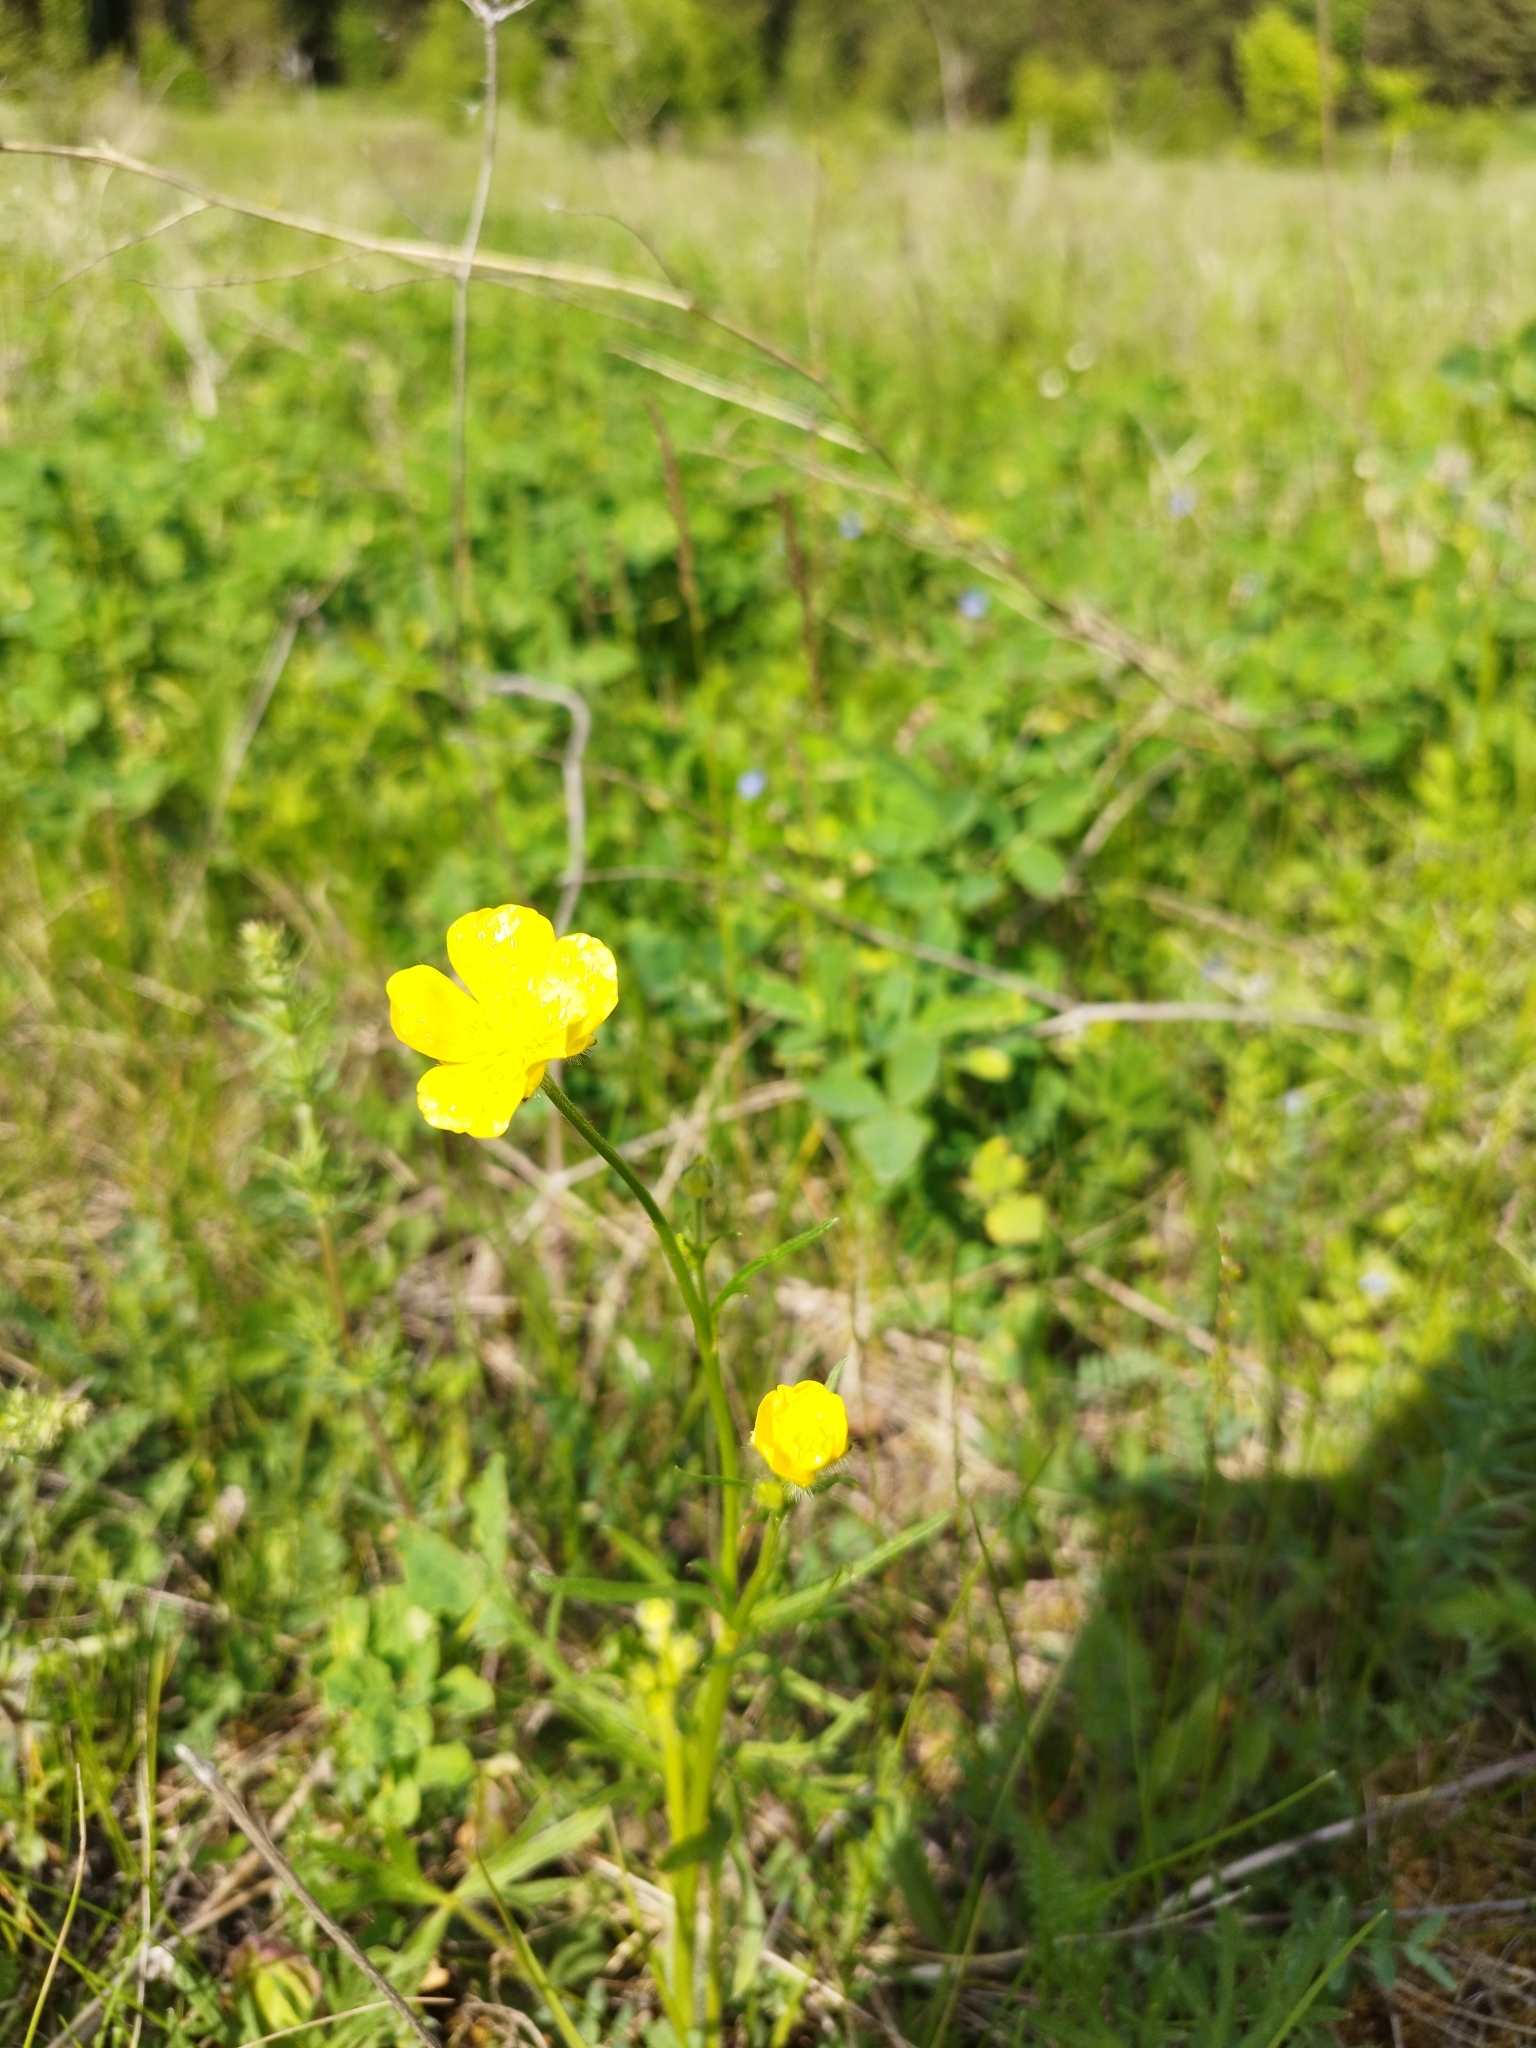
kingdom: Plantae
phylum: Tracheophyta
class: Magnoliopsida
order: Ranunculales
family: Ranunculaceae
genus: Ranunculus
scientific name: Ranunculus polyanthemos
